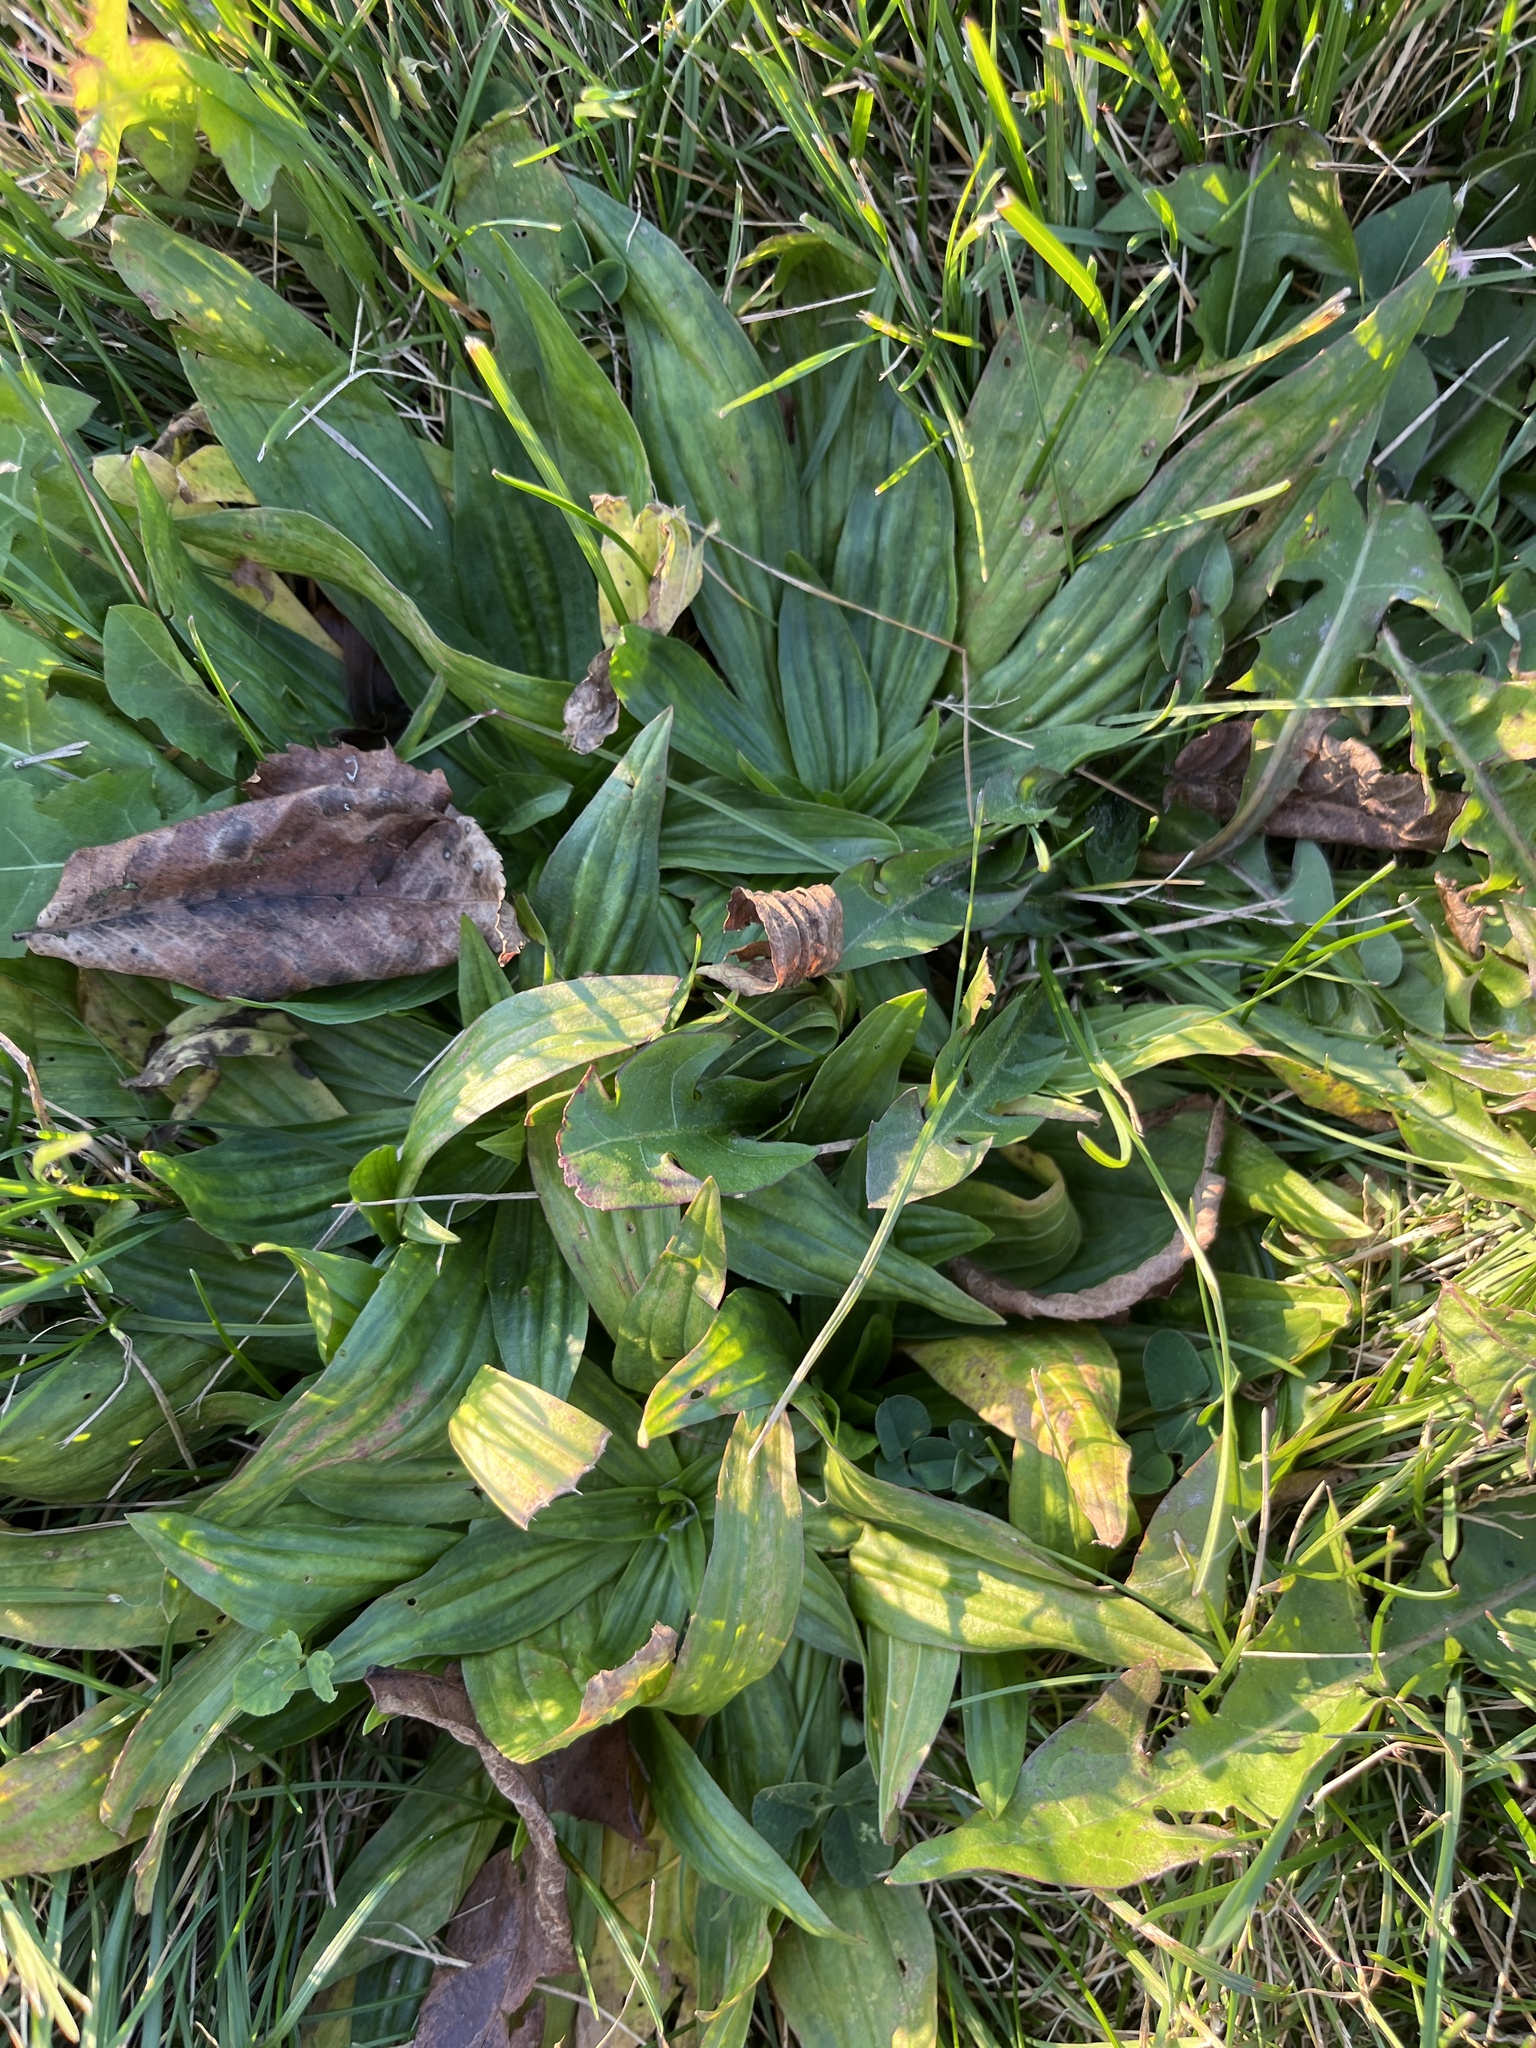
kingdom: Plantae
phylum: Tracheophyta
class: Magnoliopsida
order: Lamiales
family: Plantaginaceae
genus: Plantago
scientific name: Plantago lanceolata
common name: Ribwort plantain
